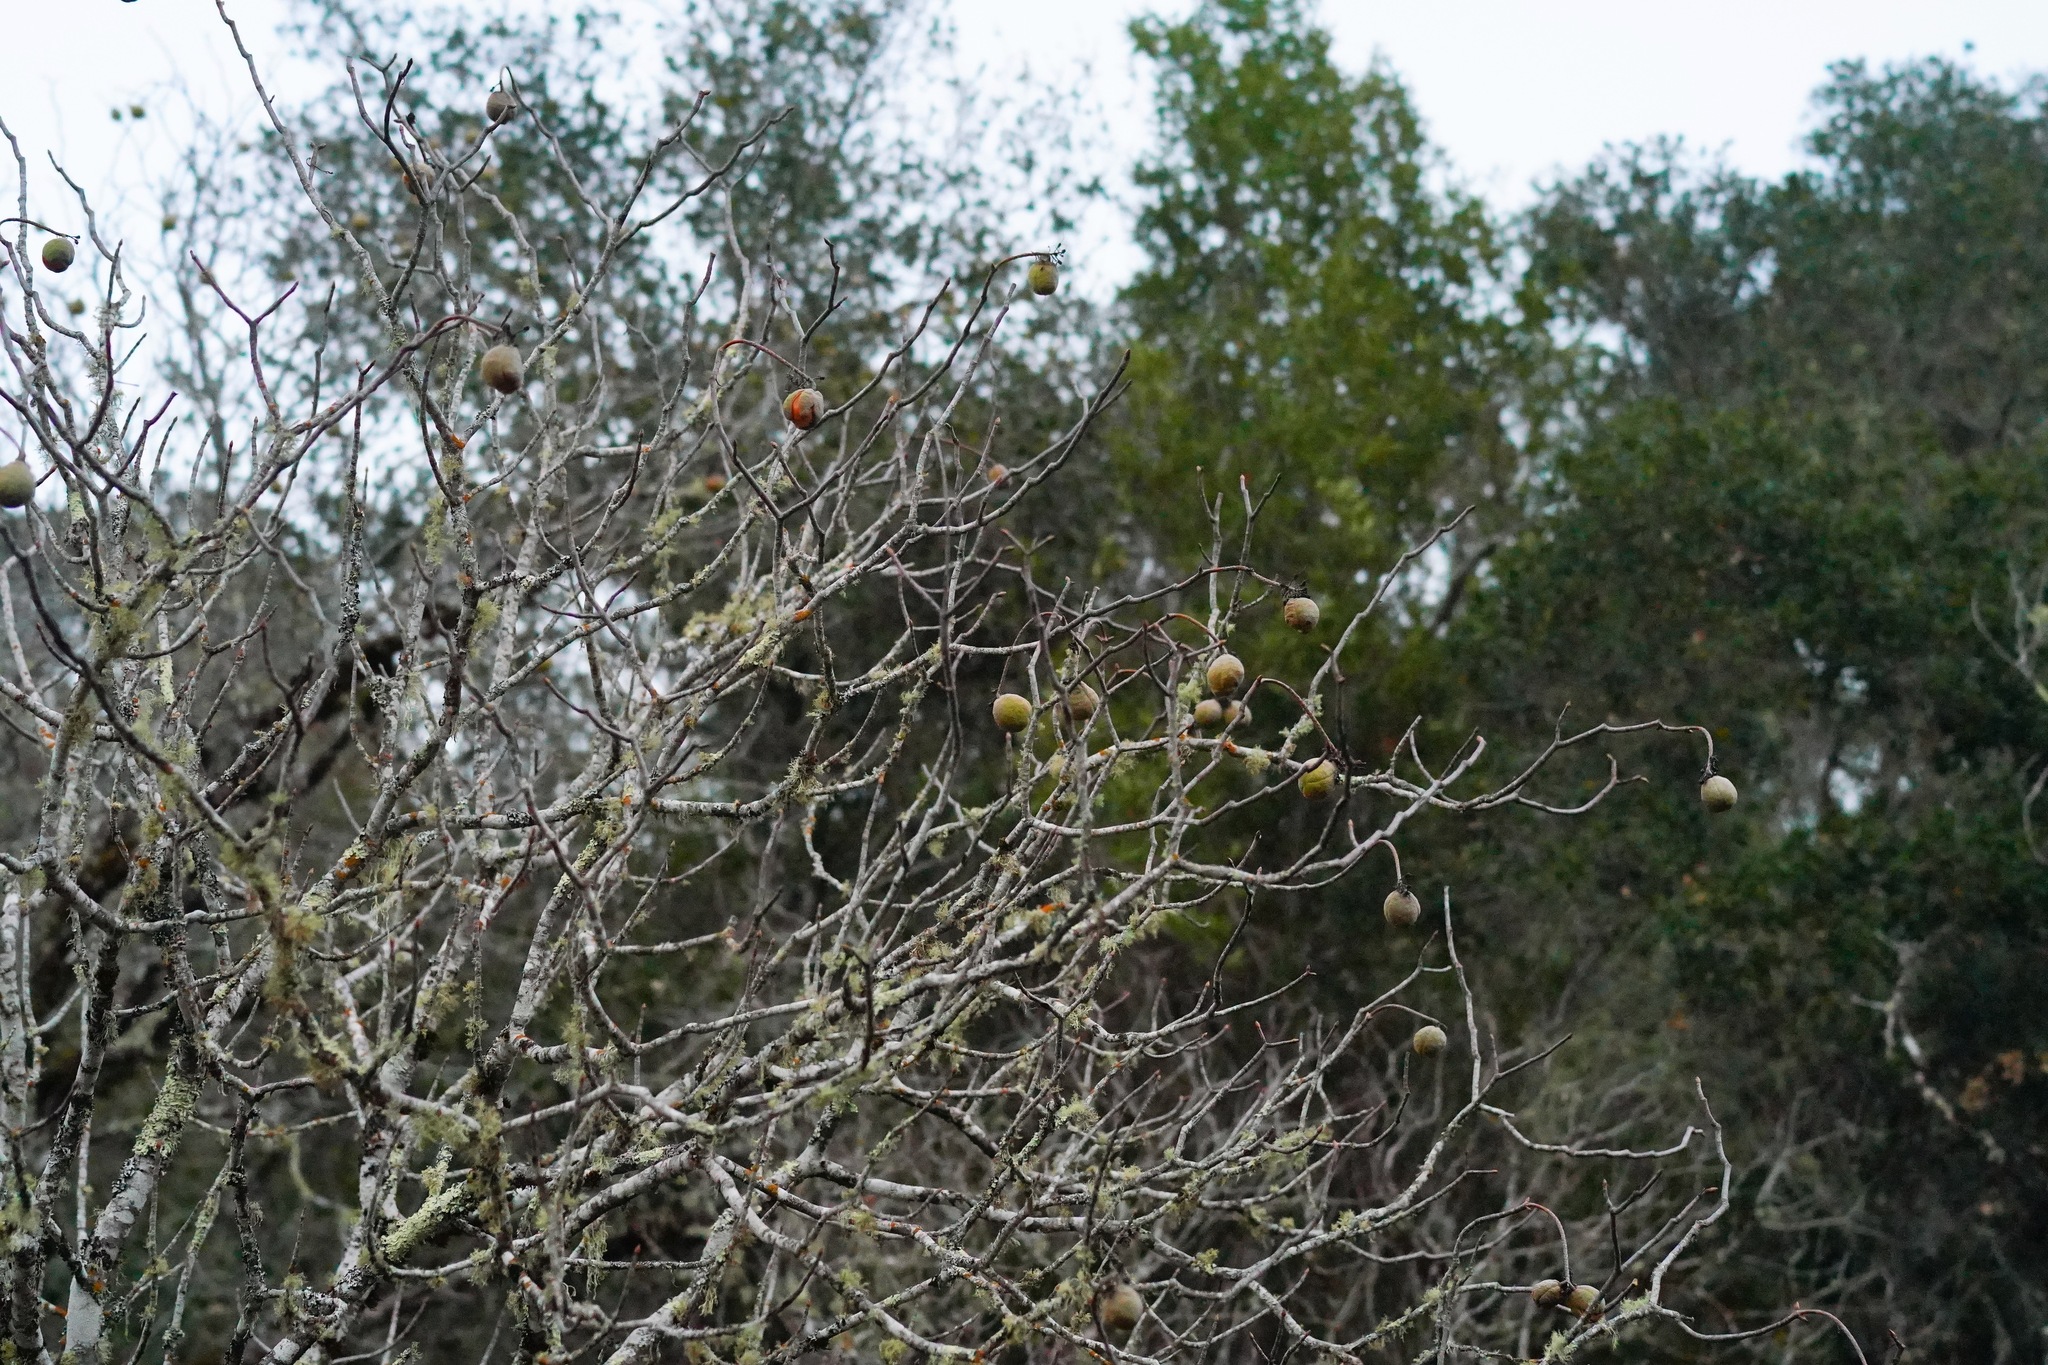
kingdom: Plantae
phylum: Tracheophyta
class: Magnoliopsida
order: Sapindales
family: Sapindaceae
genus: Aesculus
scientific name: Aesculus californica
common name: California buckeye
